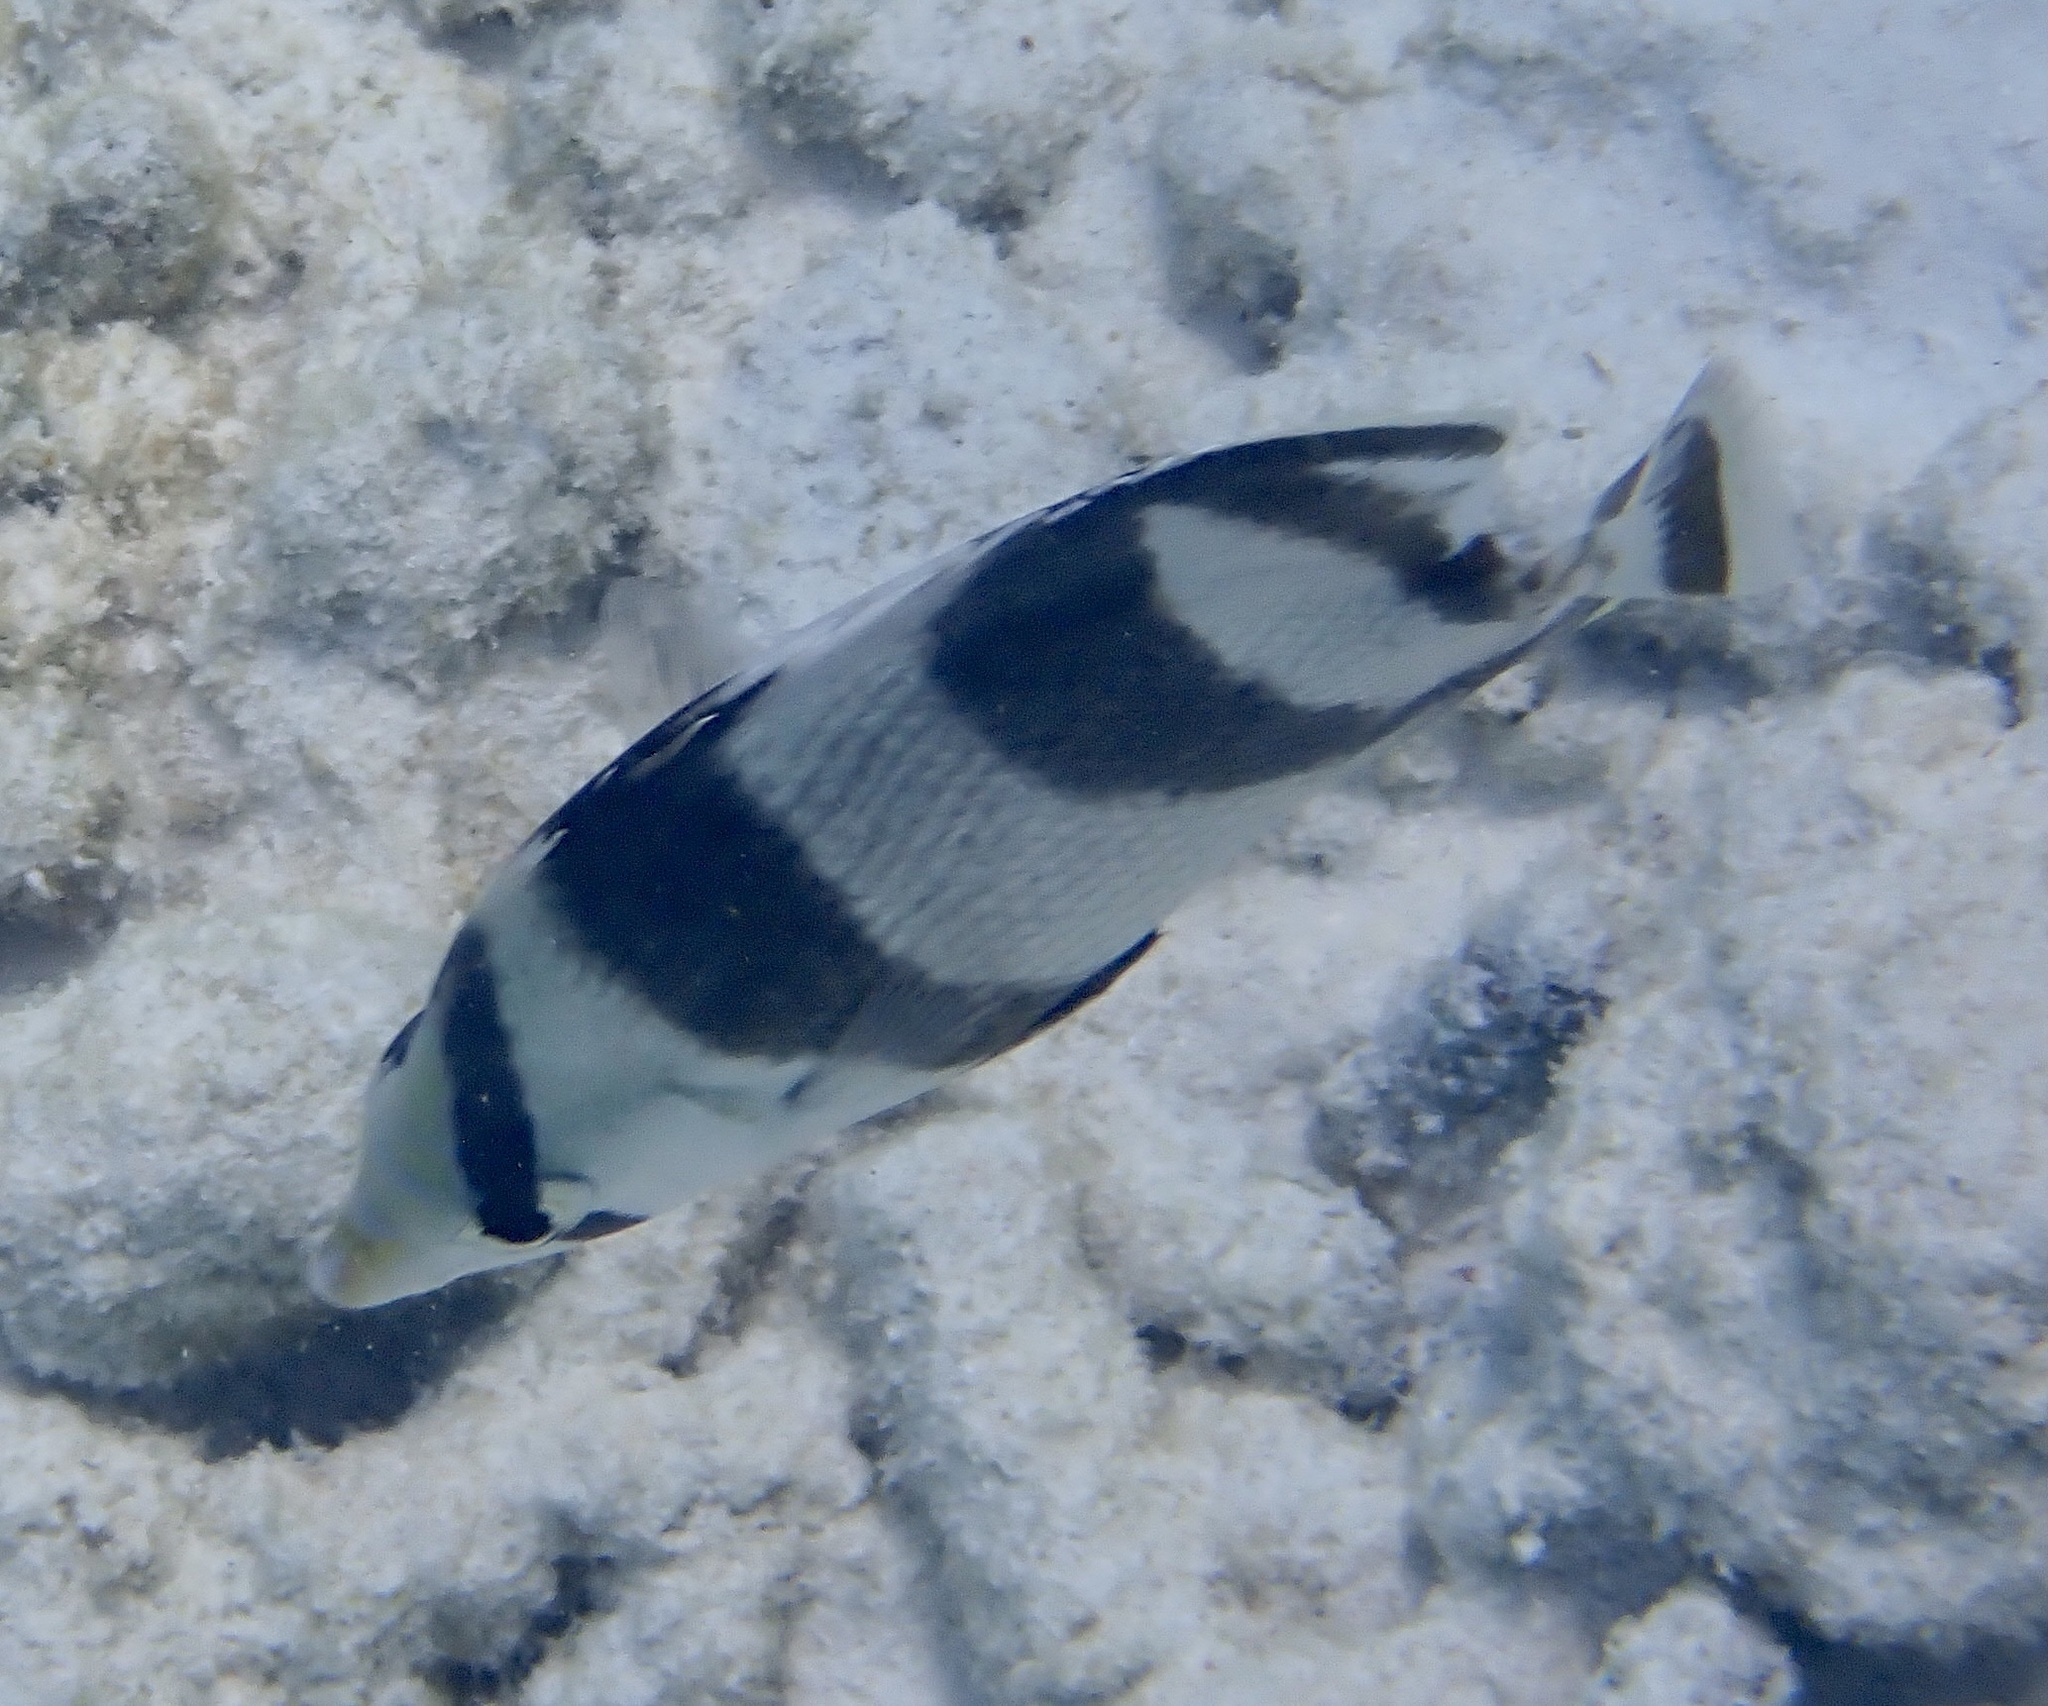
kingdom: Animalia
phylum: Chordata
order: Perciformes
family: Chaetodontidae
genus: Chaetodon
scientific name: Chaetodon striatus
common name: Banded butterflyfish
